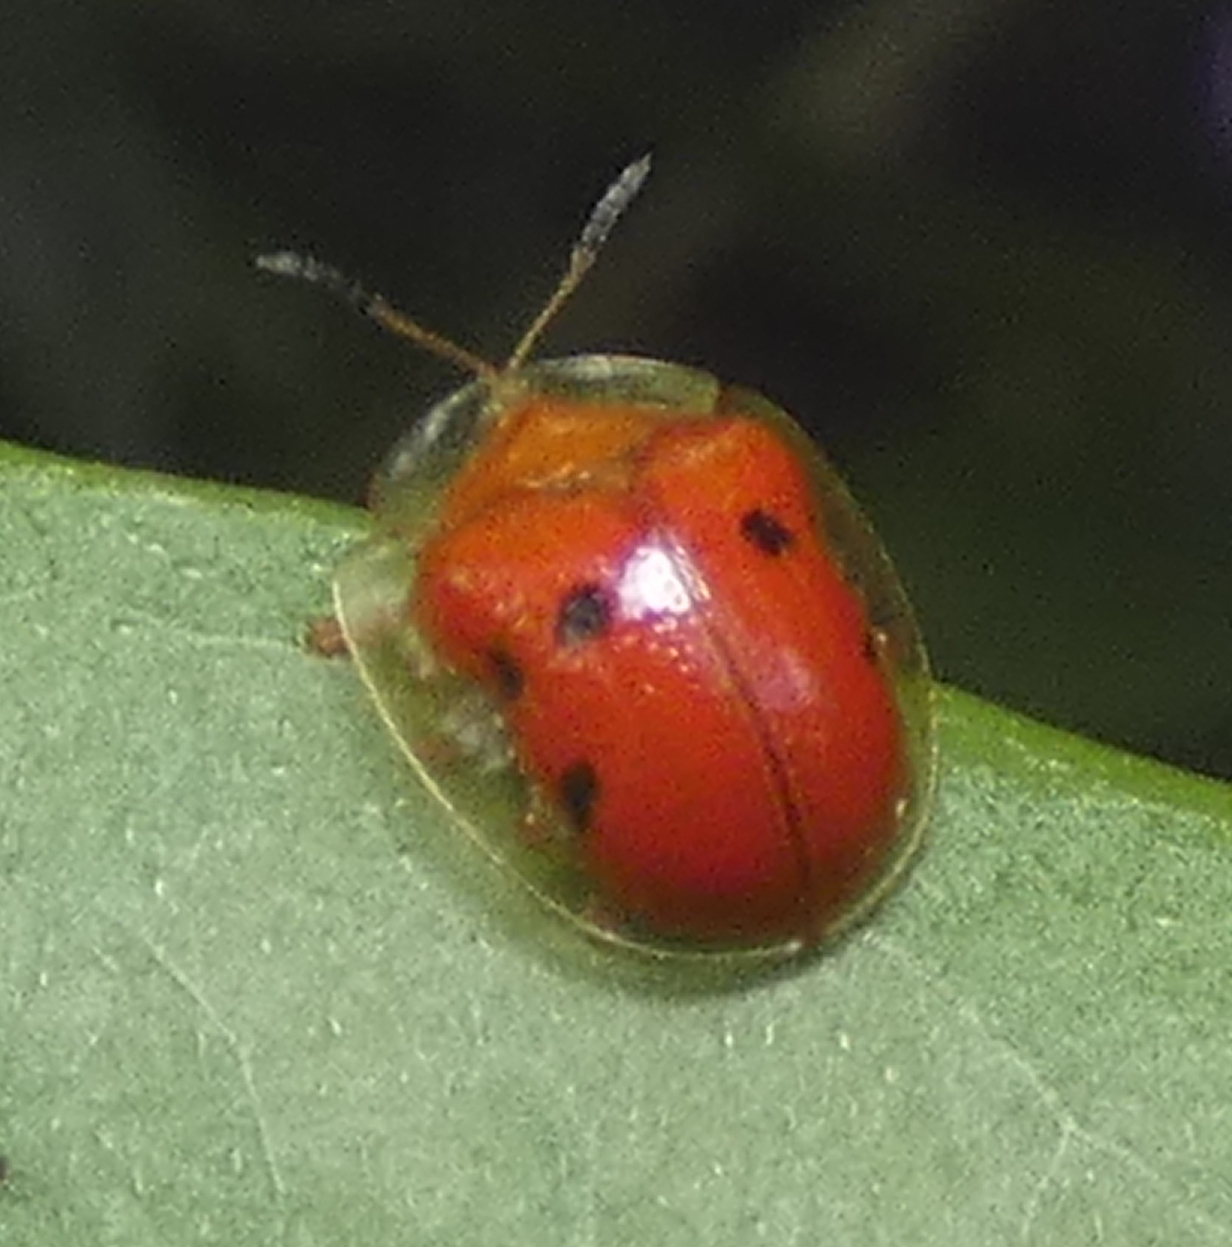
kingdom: Animalia
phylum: Arthropoda
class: Insecta
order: Coleoptera
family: Chrysomelidae
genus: Charidotella
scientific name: Charidotella sexpunctata
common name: Golden tortoise beetle
